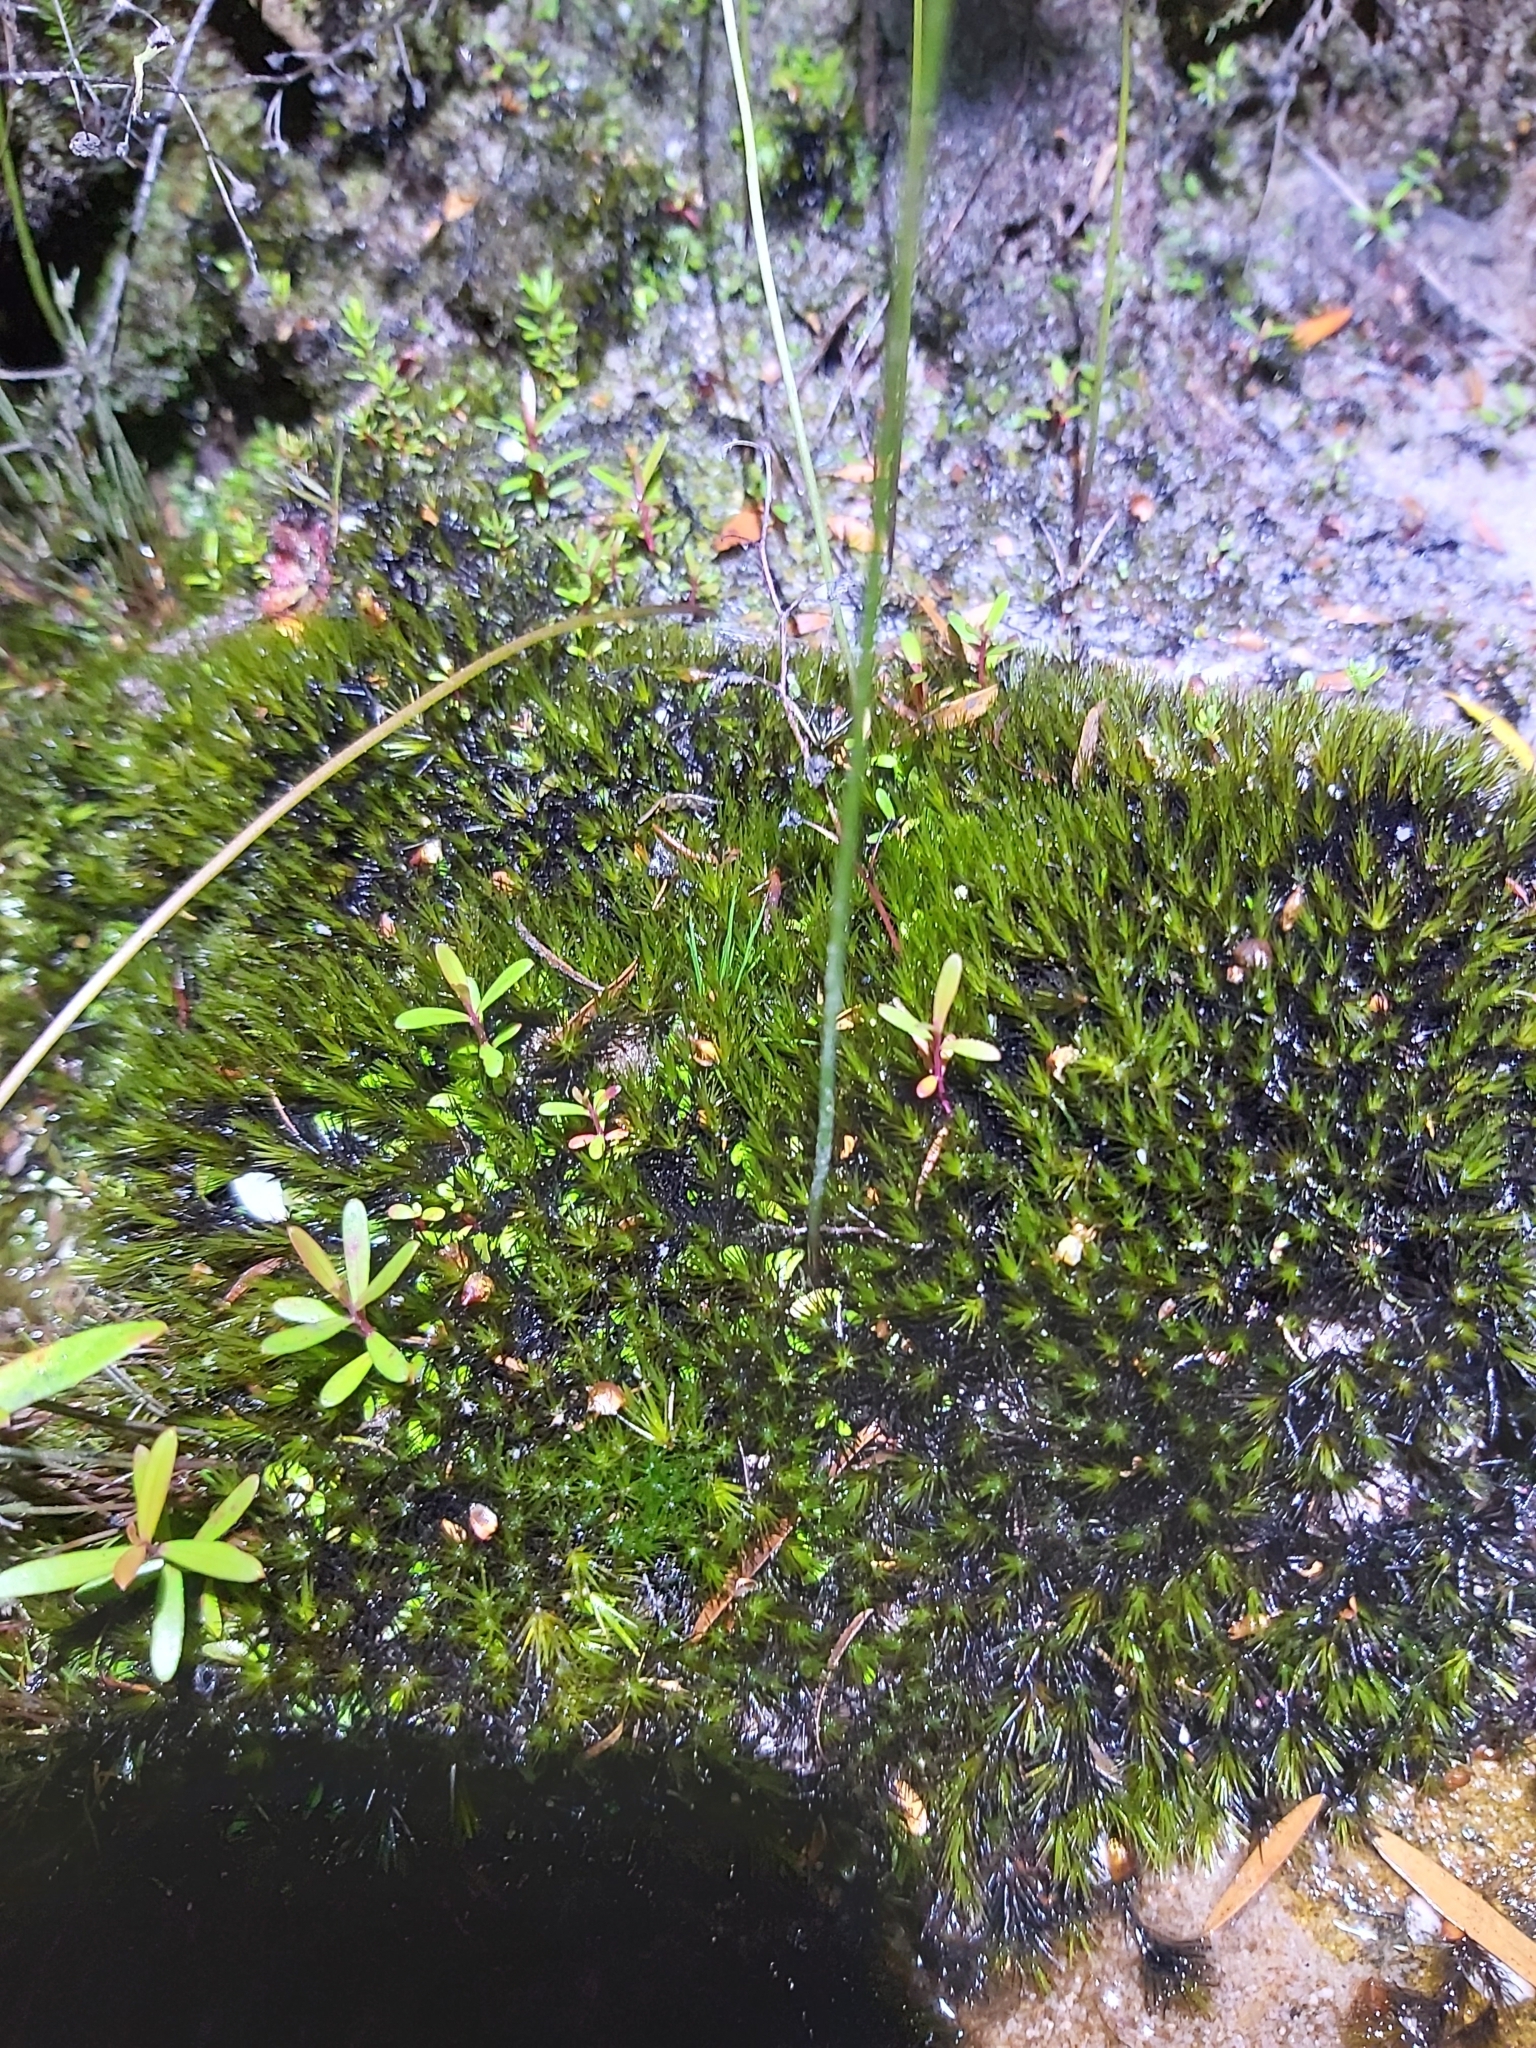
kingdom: Plantae
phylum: Tracheophyta
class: Magnoliopsida
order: Lamiales
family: Lentibulariaceae
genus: Utricularia
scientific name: Utricularia dichotoma
